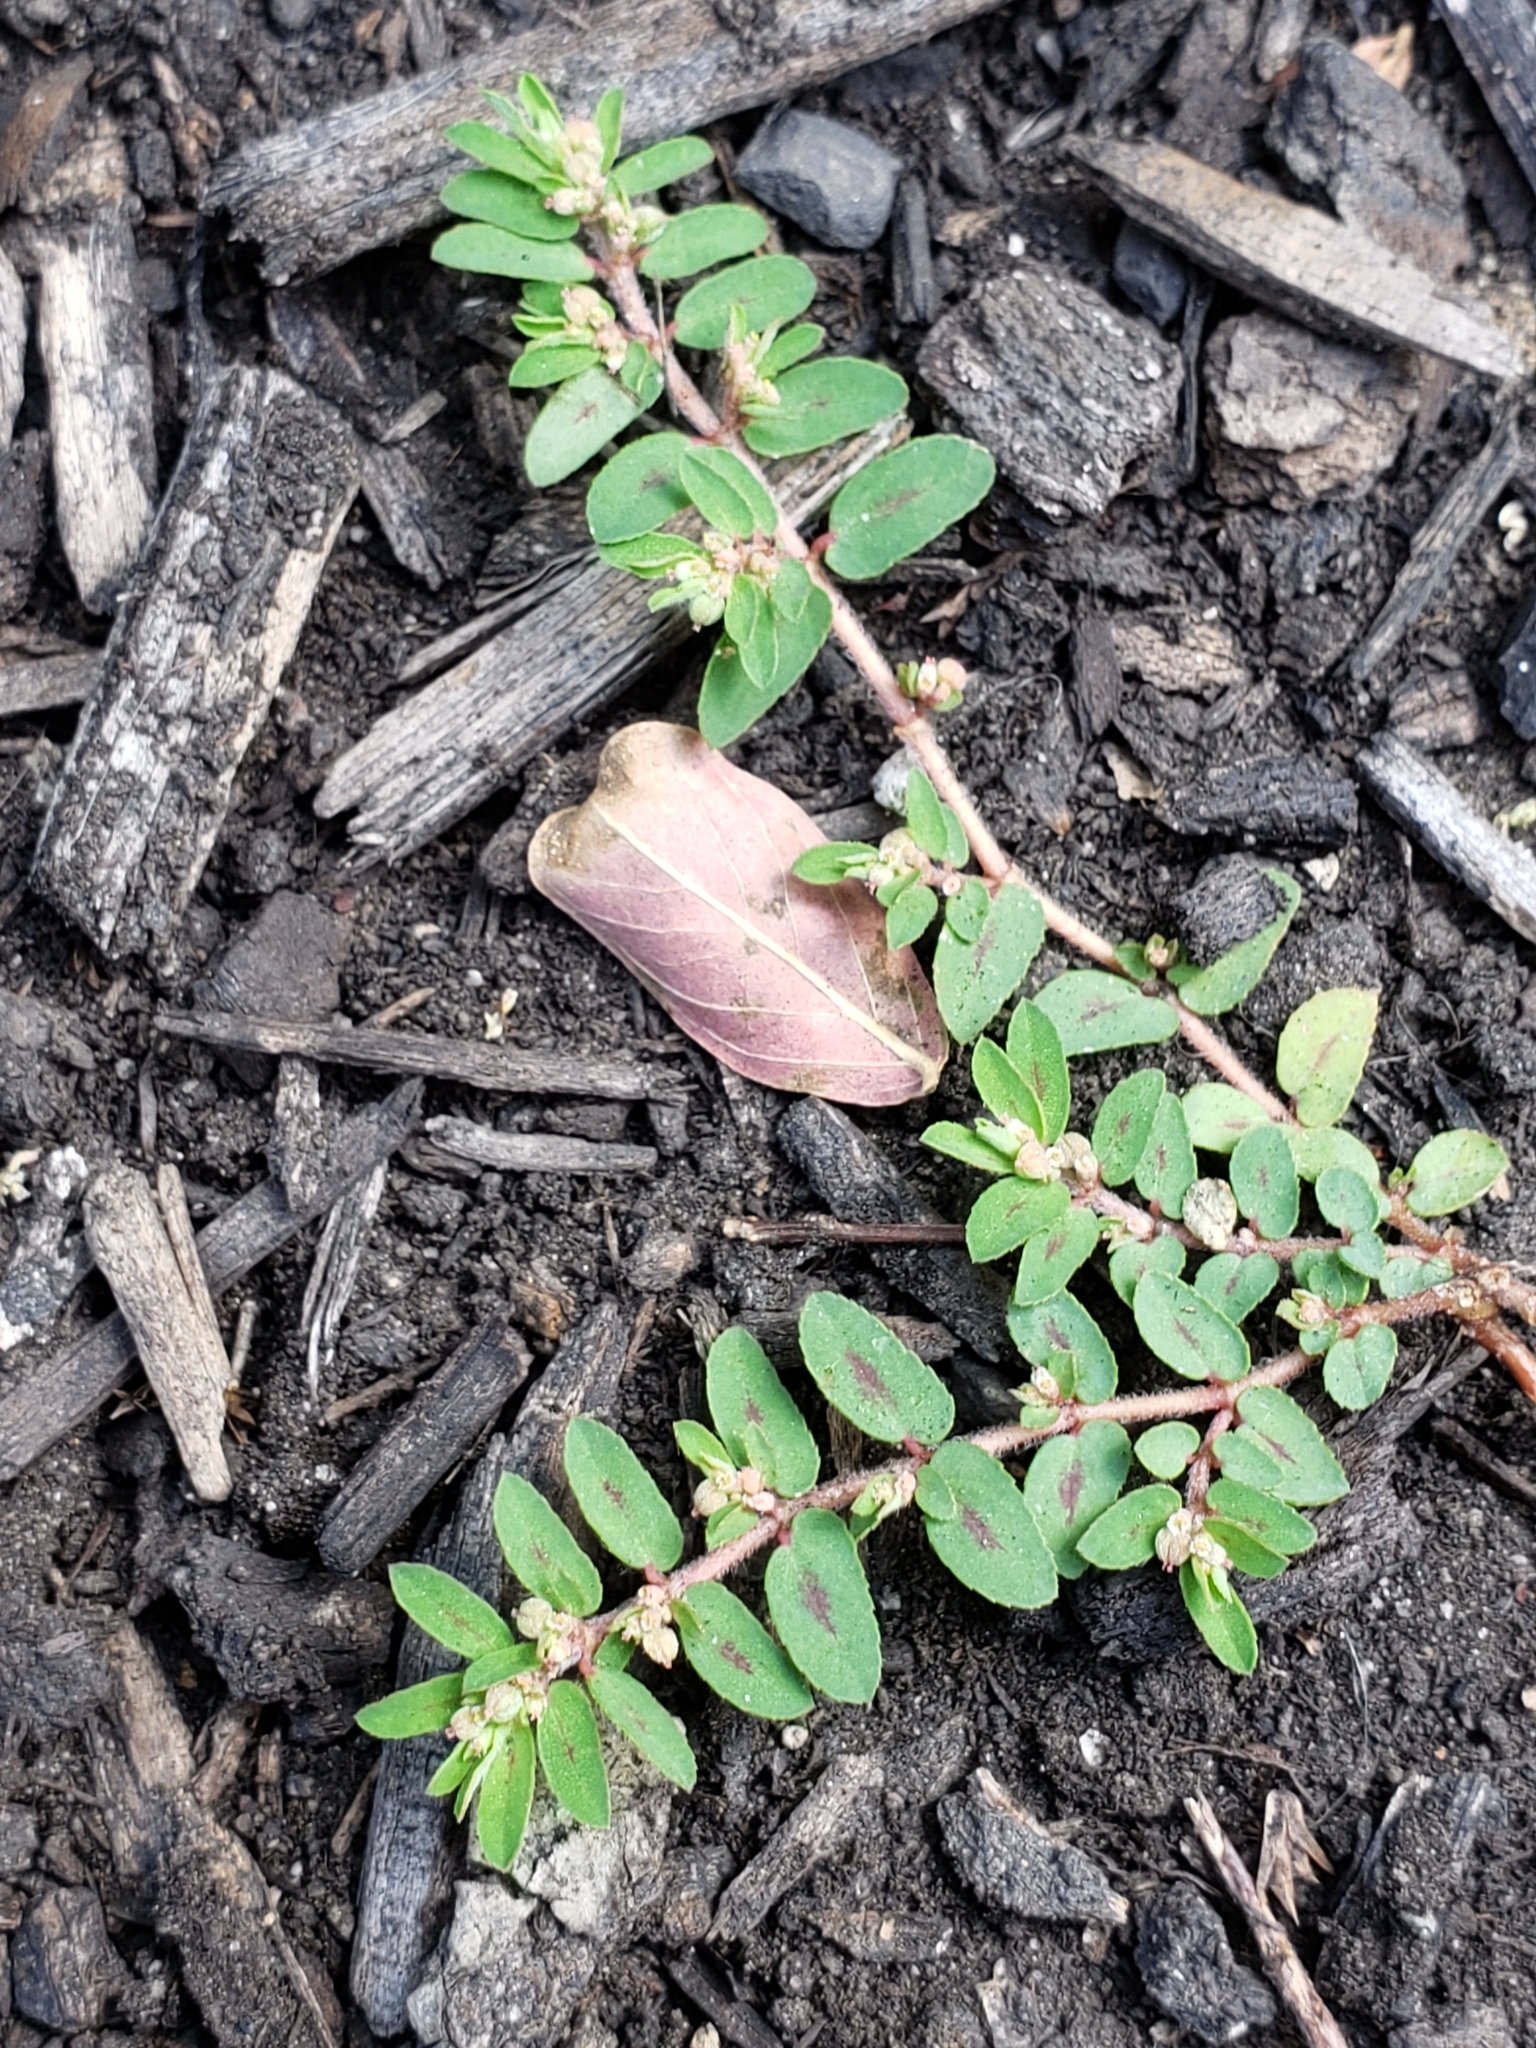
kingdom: Plantae
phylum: Tracheophyta
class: Magnoliopsida
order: Malpighiales
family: Euphorbiaceae
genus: Euphorbia
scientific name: Euphorbia maculata
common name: Spotted spurge
